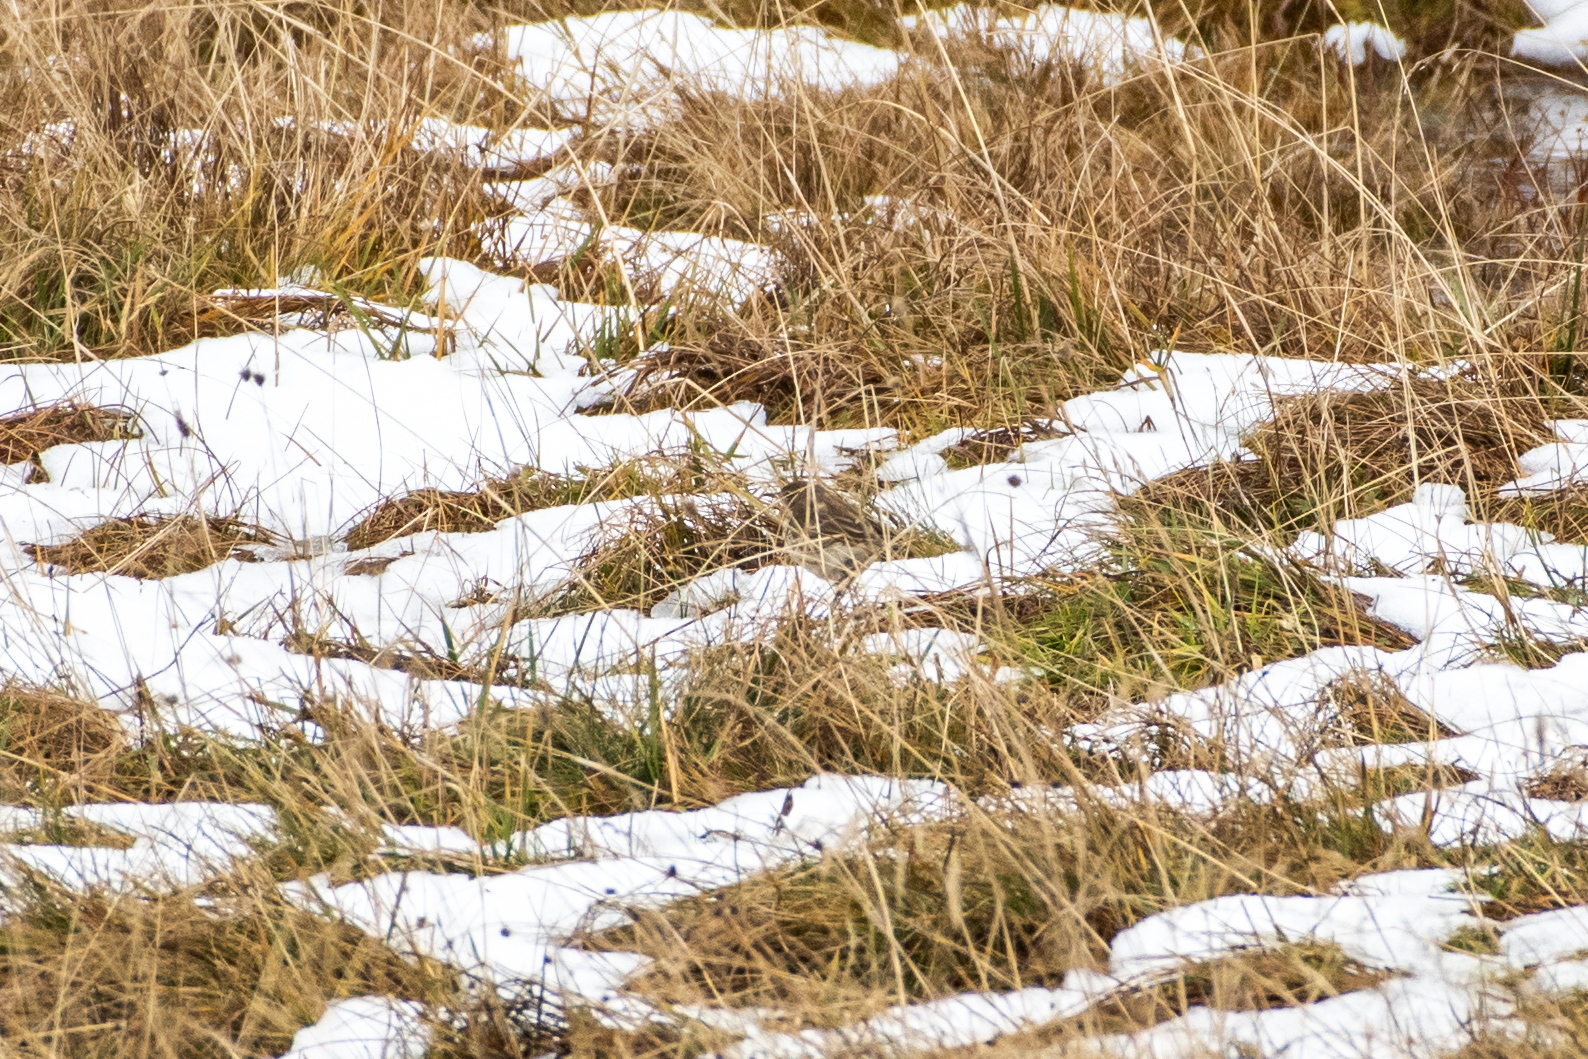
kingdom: Animalia
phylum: Chordata
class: Aves
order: Passeriformes
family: Motacillidae
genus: Anthus
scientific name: Anthus spinoletta
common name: Water pipit
